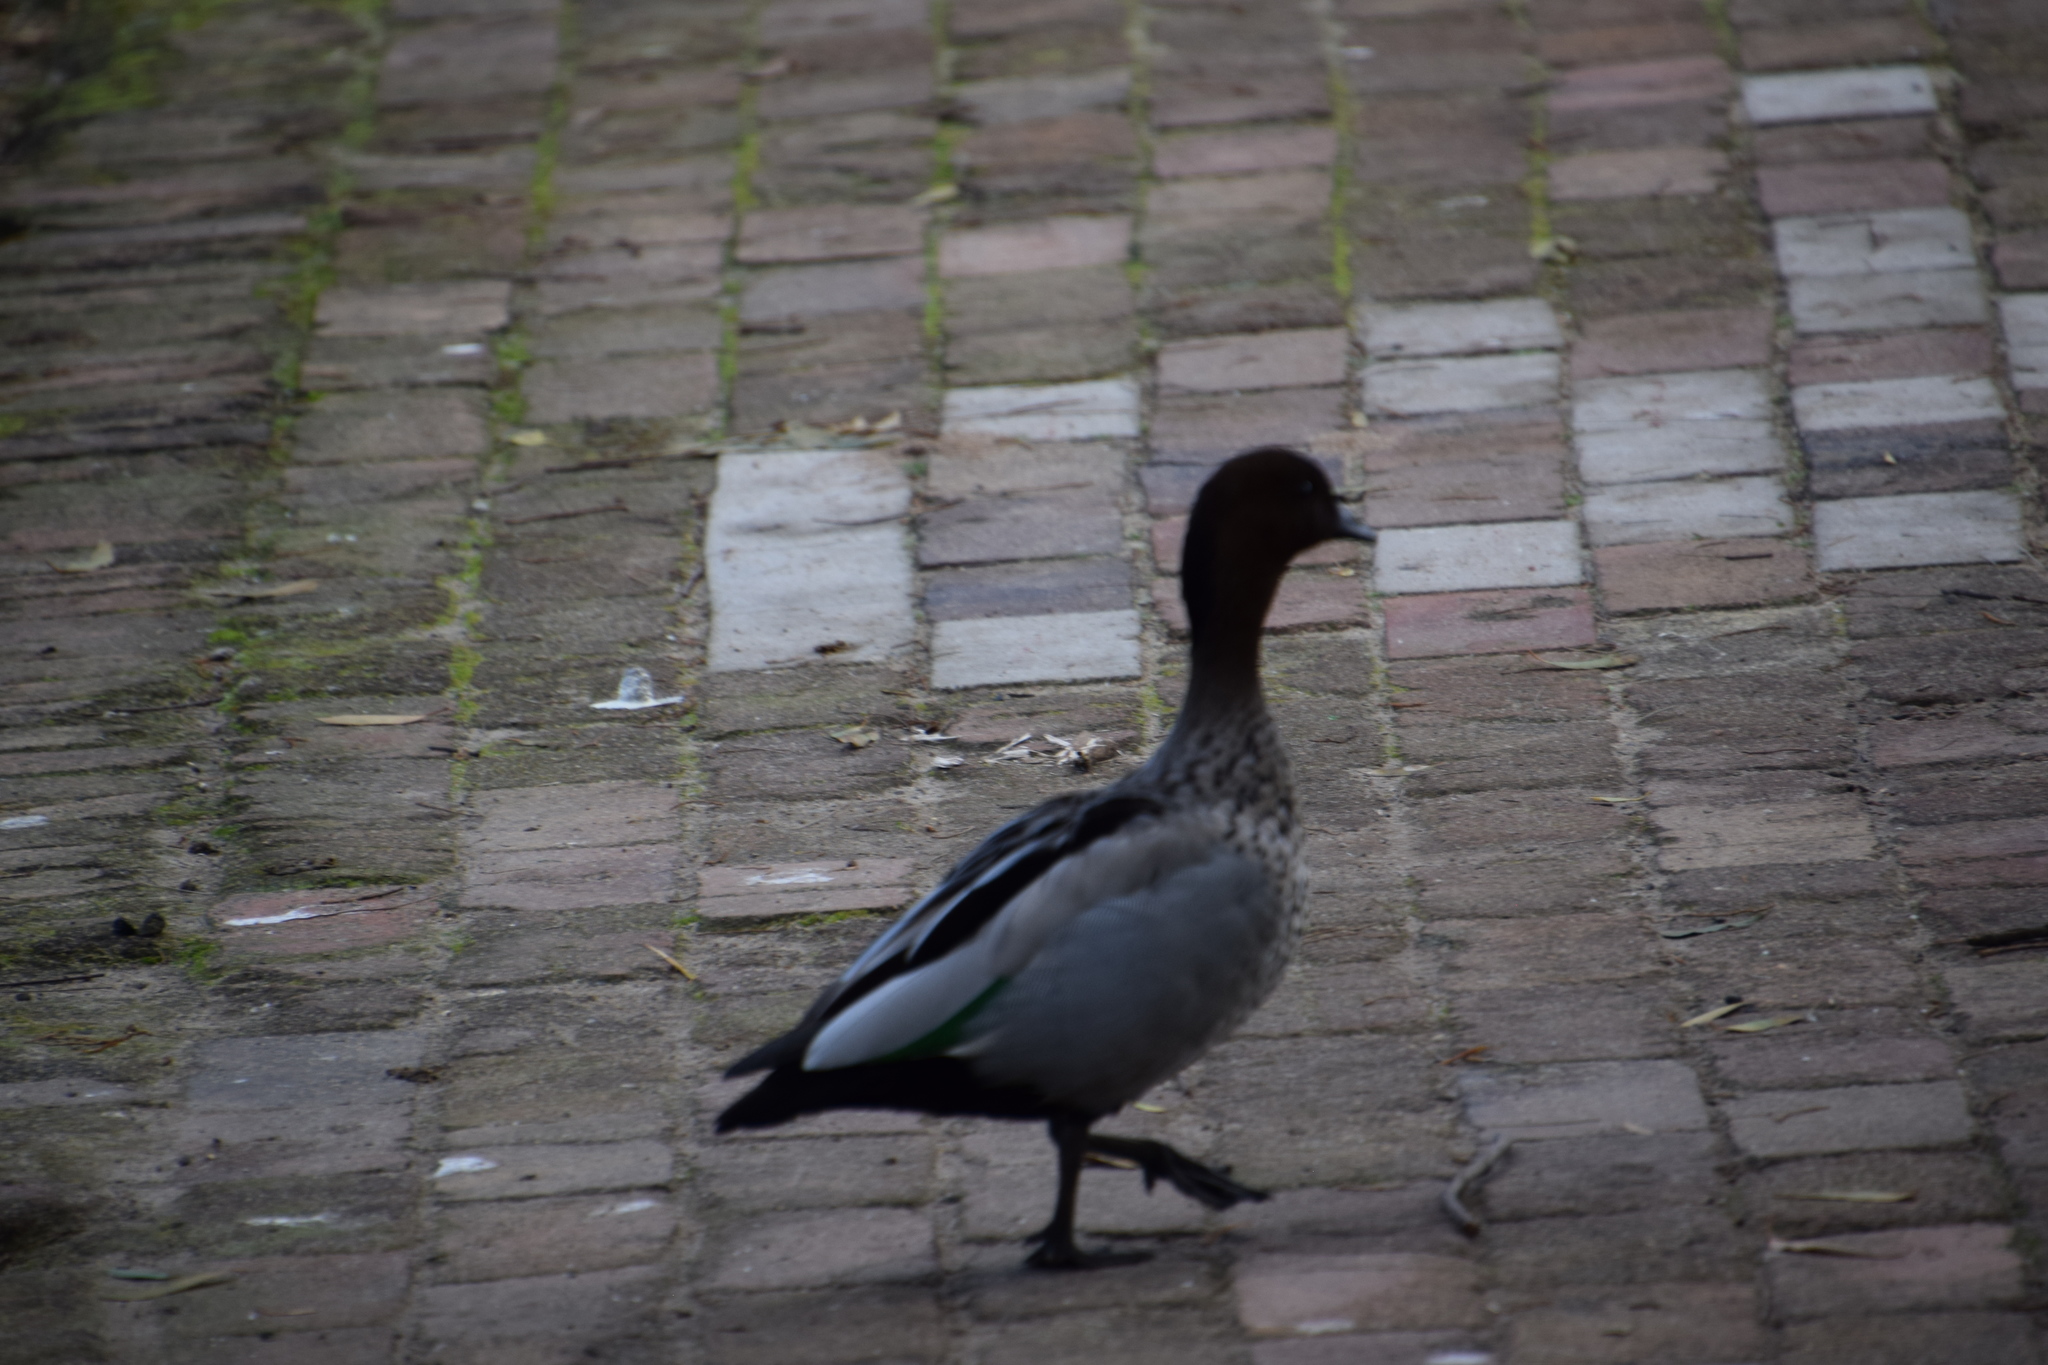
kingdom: Animalia
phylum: Chordata
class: Aves
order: Anseriformes
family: Anatidae
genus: Chenonetta
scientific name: Chenonetta jubata
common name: Maned duck
